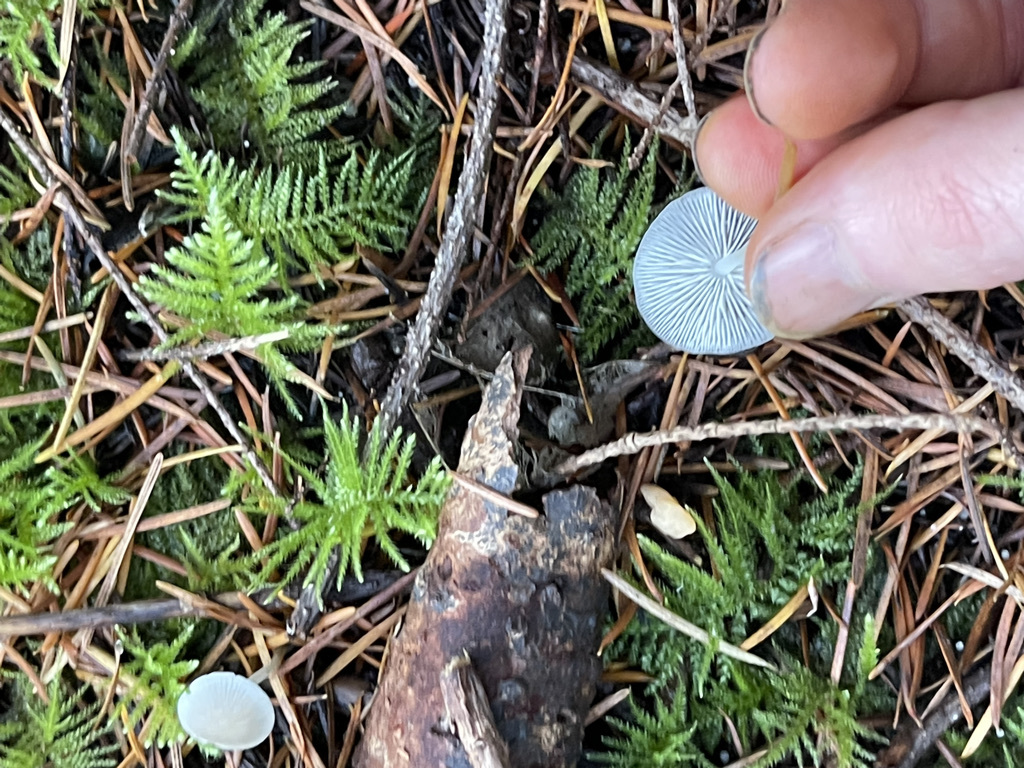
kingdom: Fungi
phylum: Basidiomycota
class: Agaricomycetes
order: Agaricales
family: Physalacriaceae
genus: Strobilurus
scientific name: Strobilurus trullisatus
